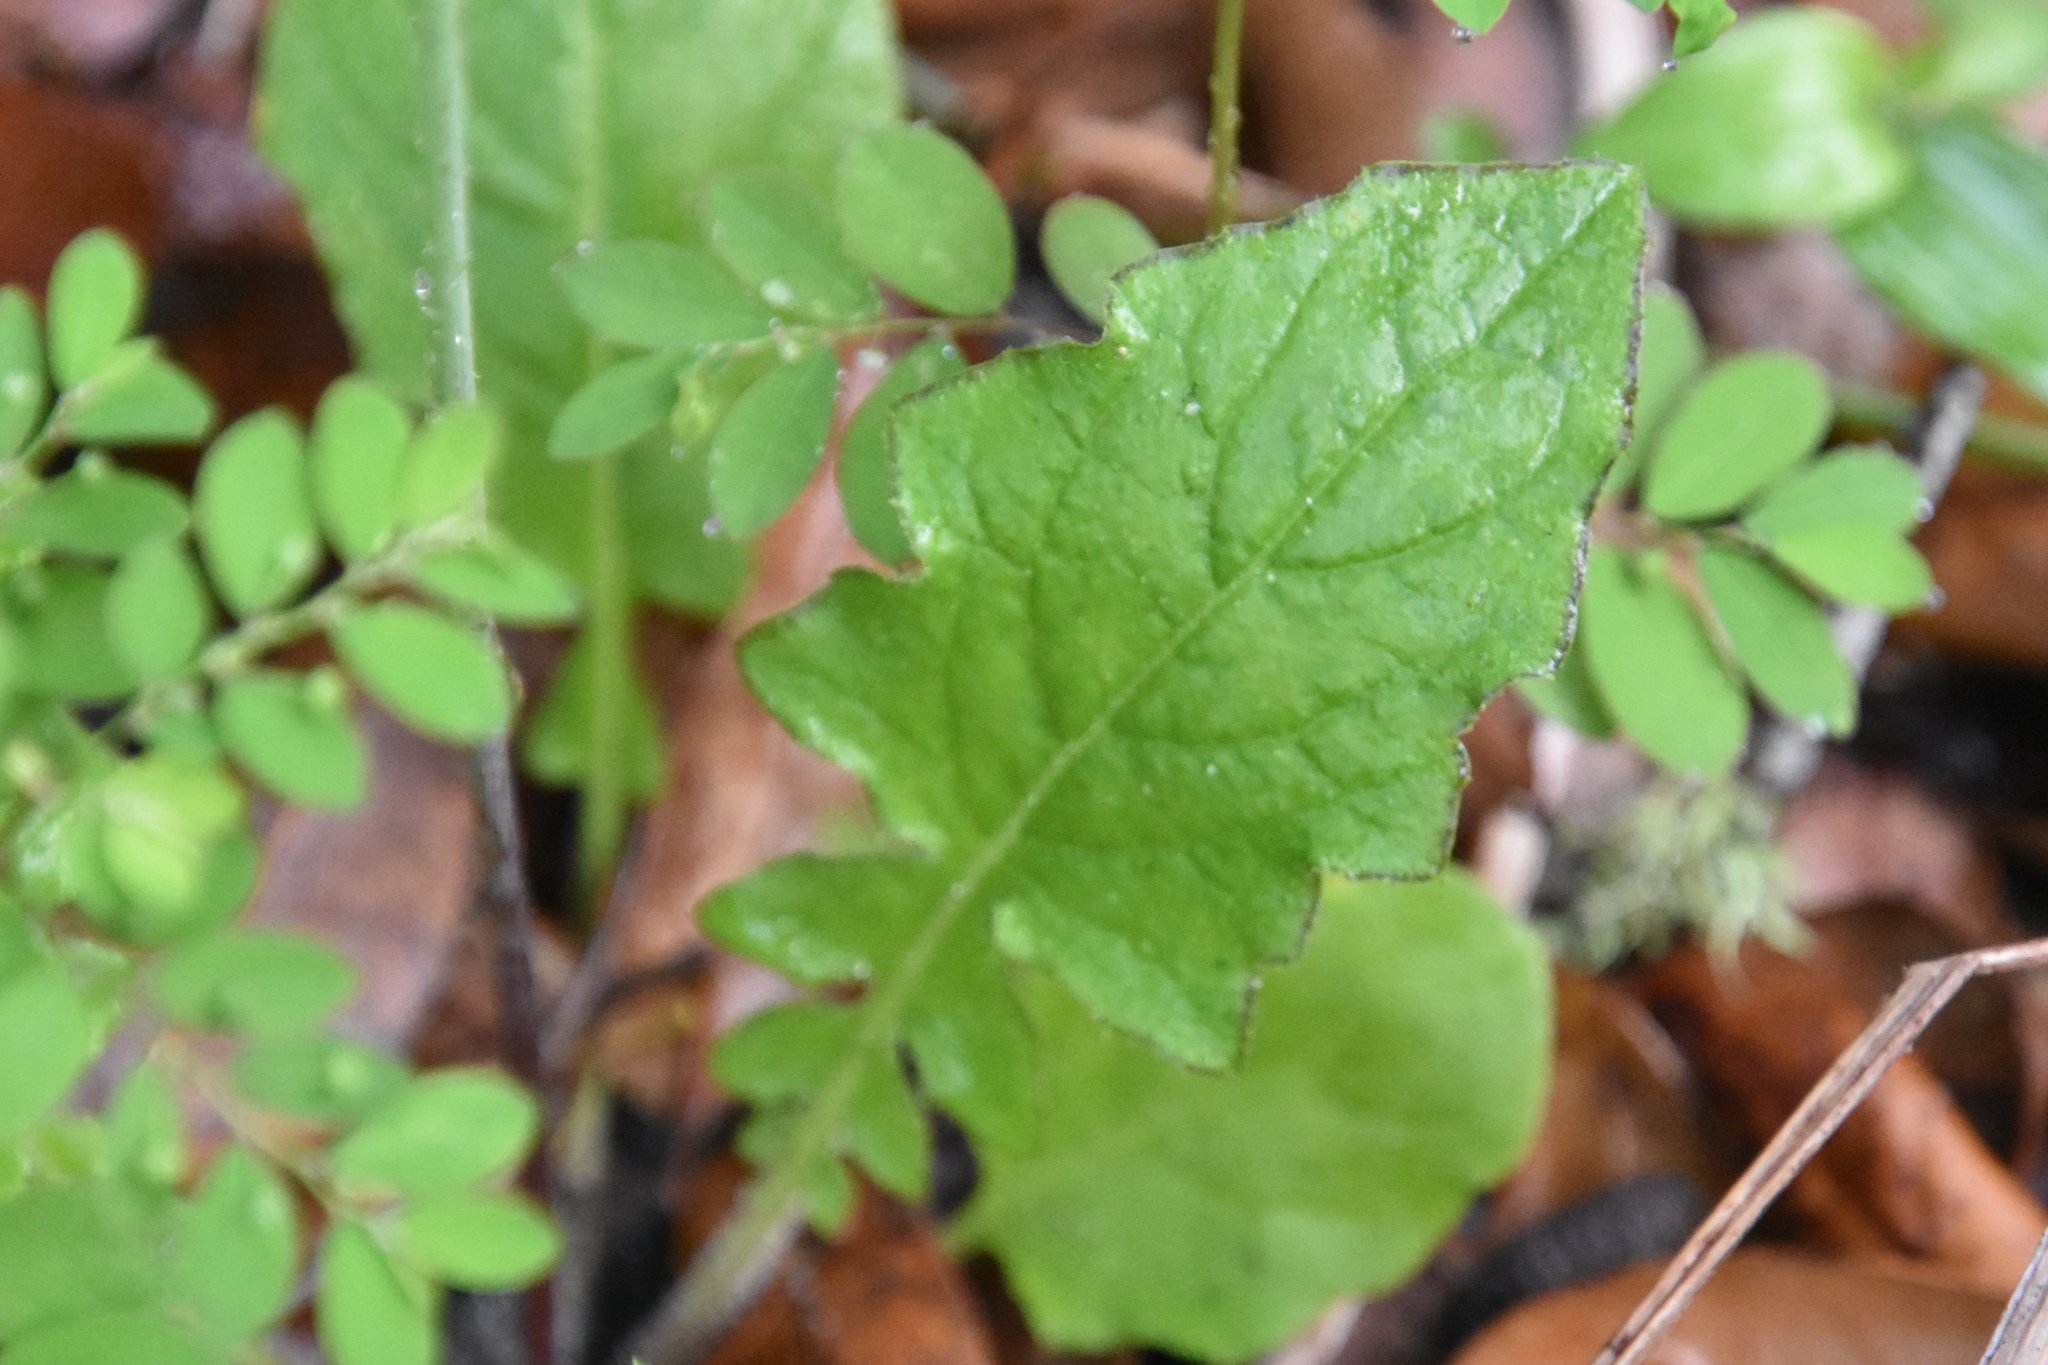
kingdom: Plantae
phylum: Tracheophyta
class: Magnoliopsida
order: Asterales
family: Asteraceae
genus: Youngia
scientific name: Youngia japonica
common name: Oriental false hawksbeard
